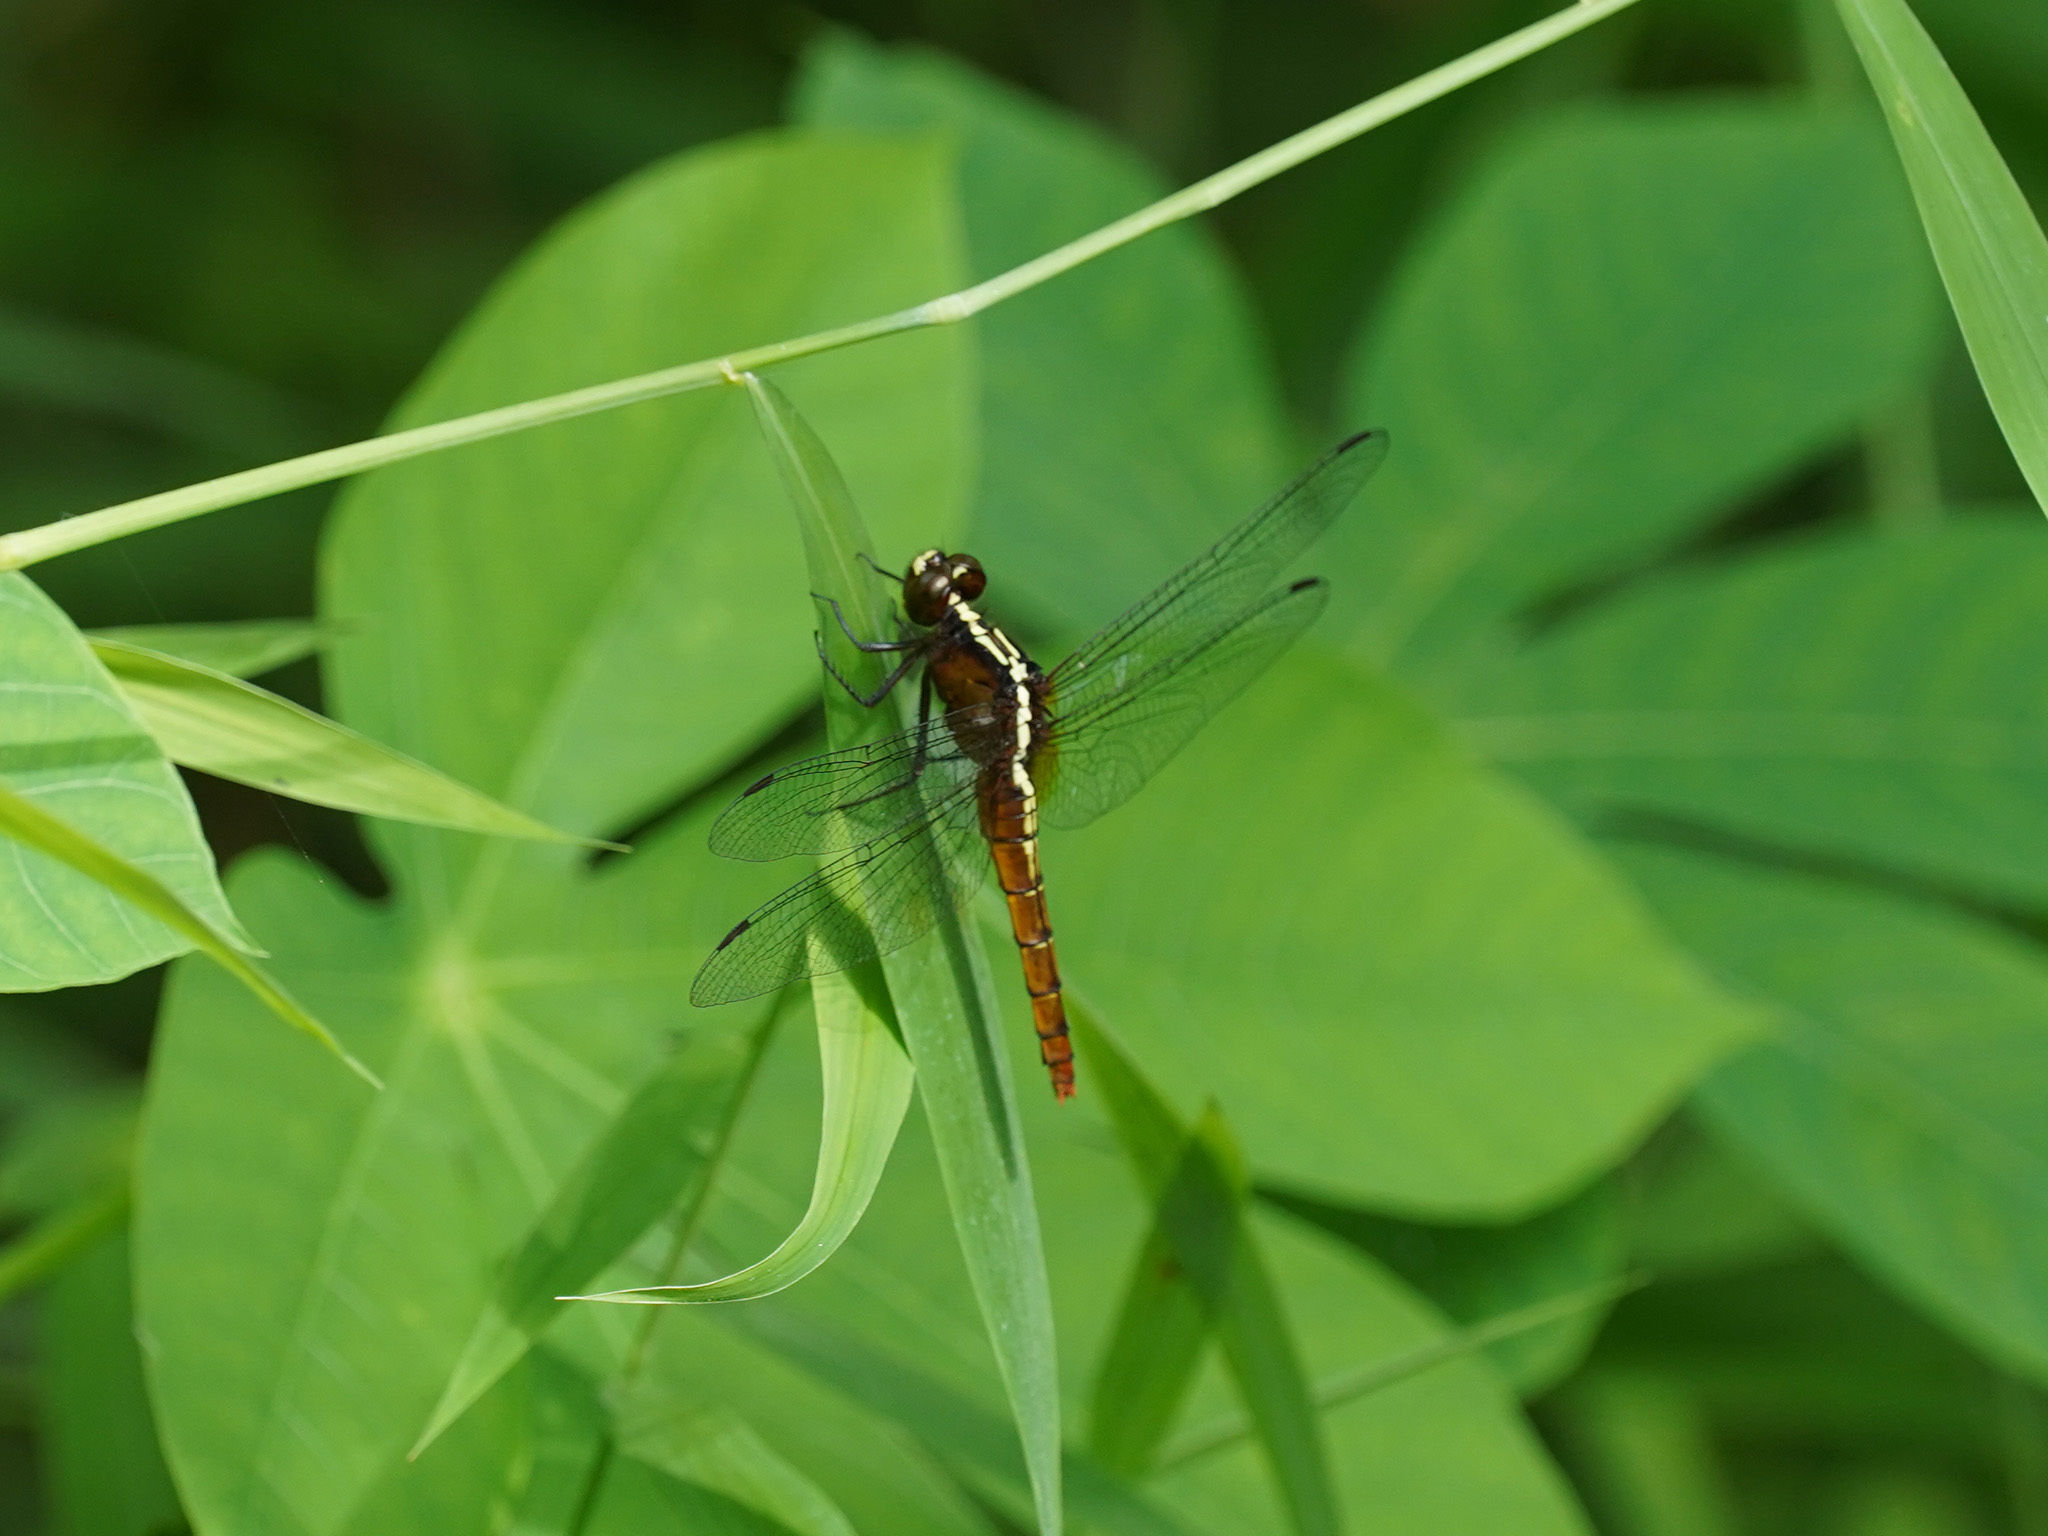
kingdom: Animalia
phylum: Arthropoda
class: Insecta
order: Odonata
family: Libellulidae
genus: Rhodothemis
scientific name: Rhodothemis rufa
